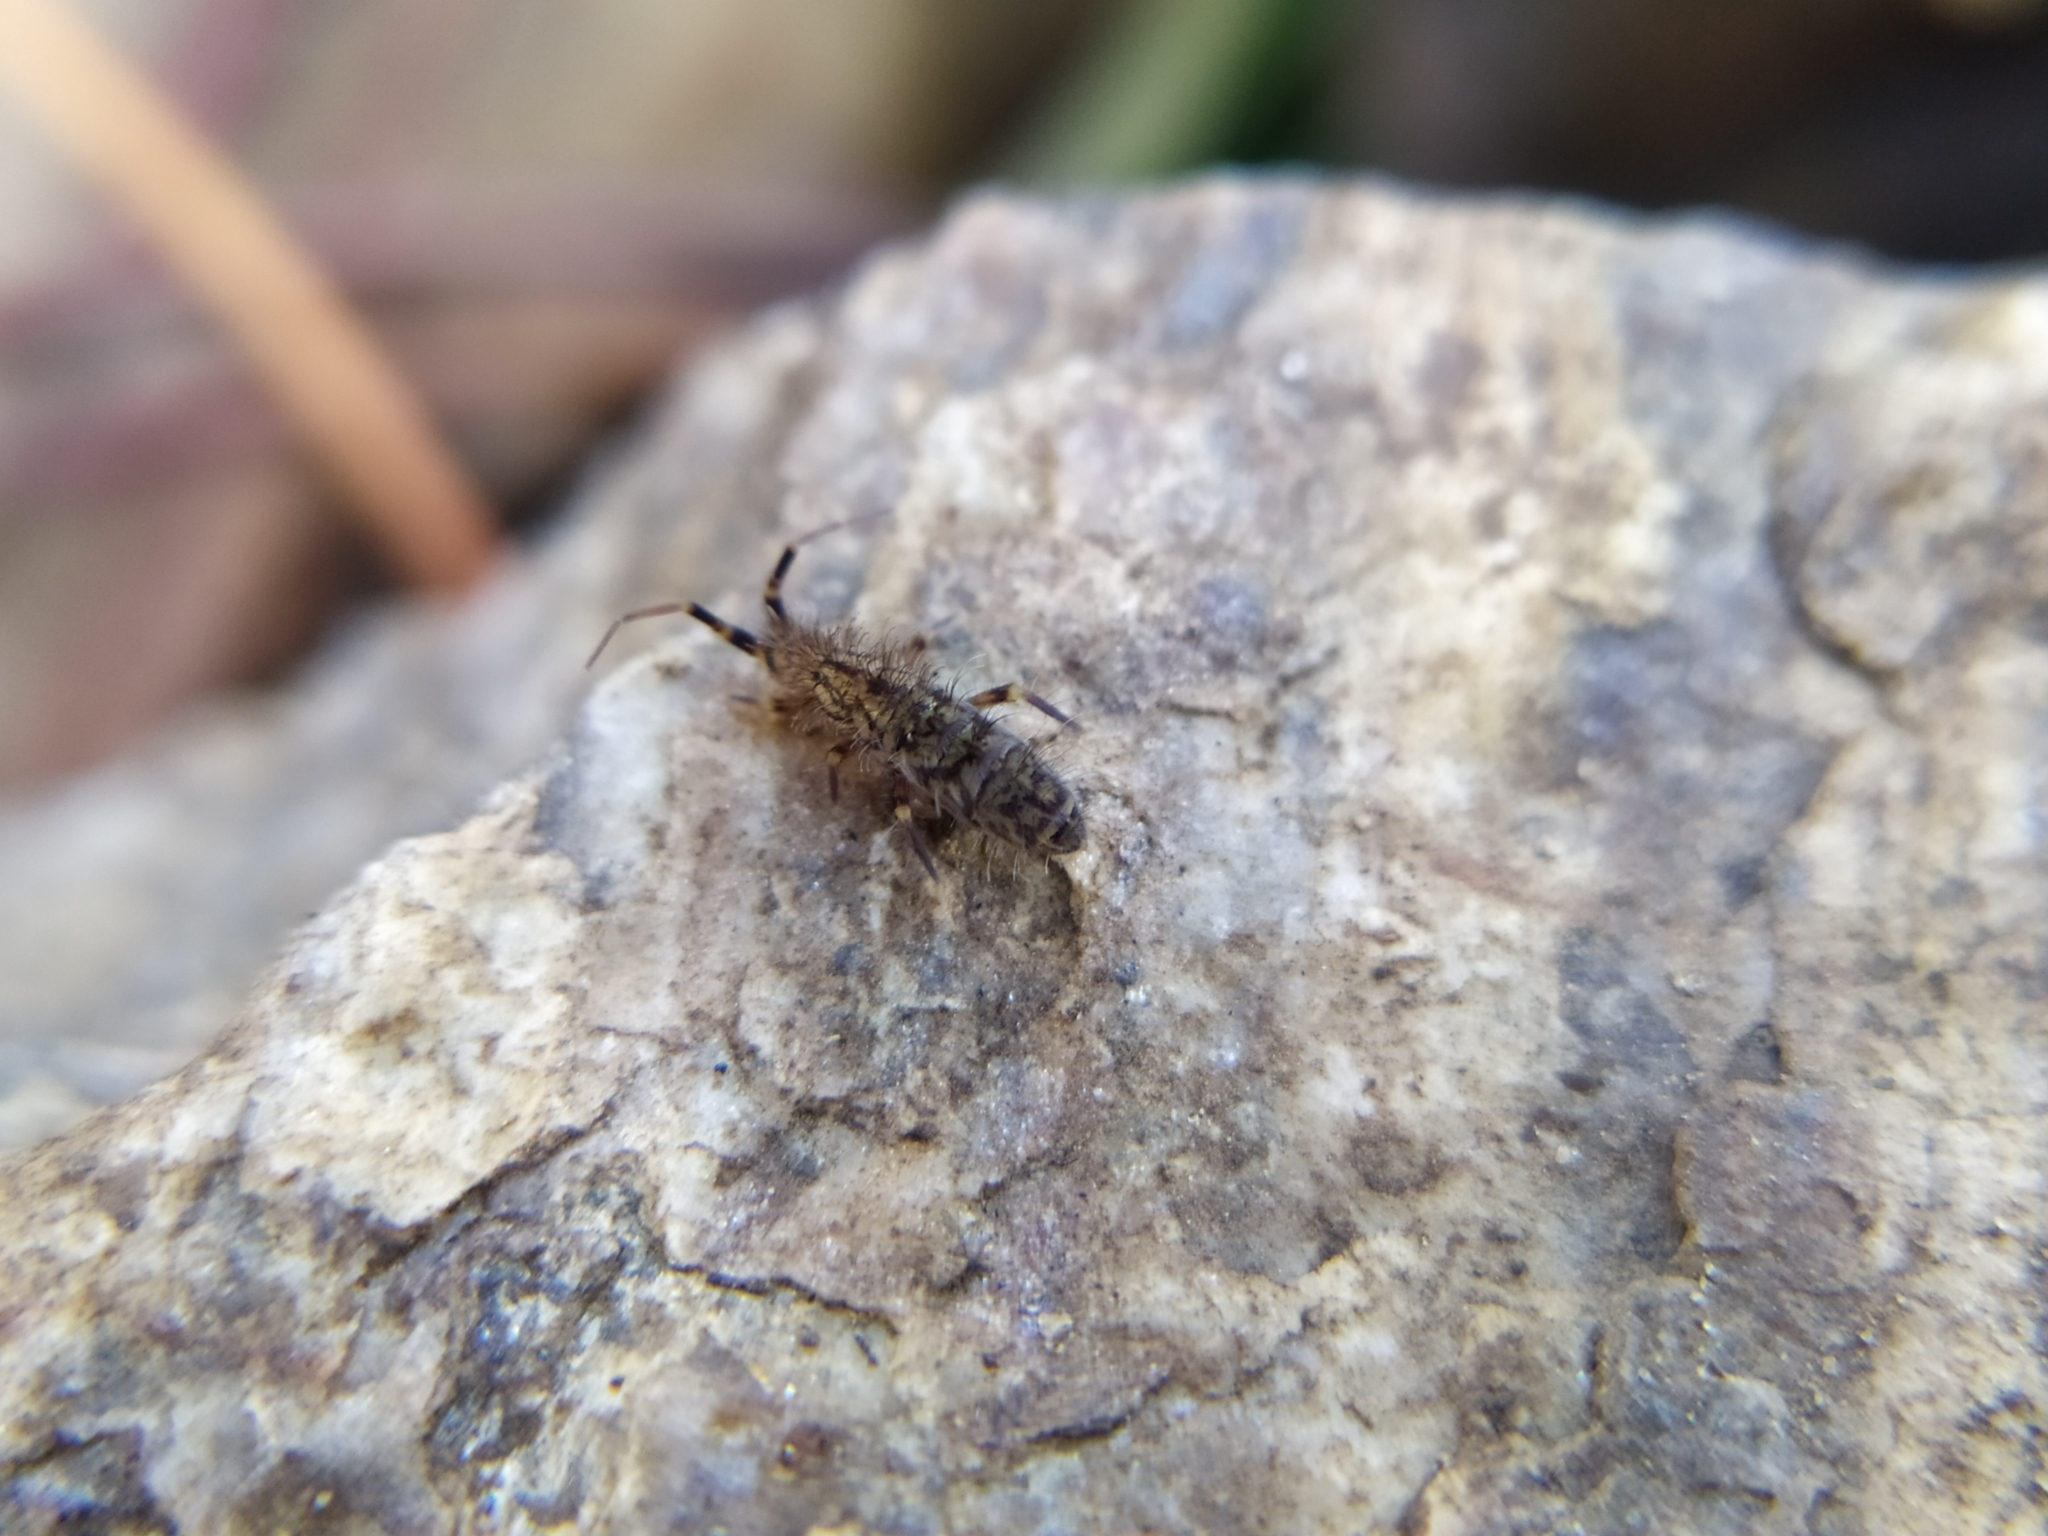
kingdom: Animalia
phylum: Arthropoda
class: Collembola
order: Entomobryomorpha
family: Orchesellidae
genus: Orchesella
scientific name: Orchesella villosa
